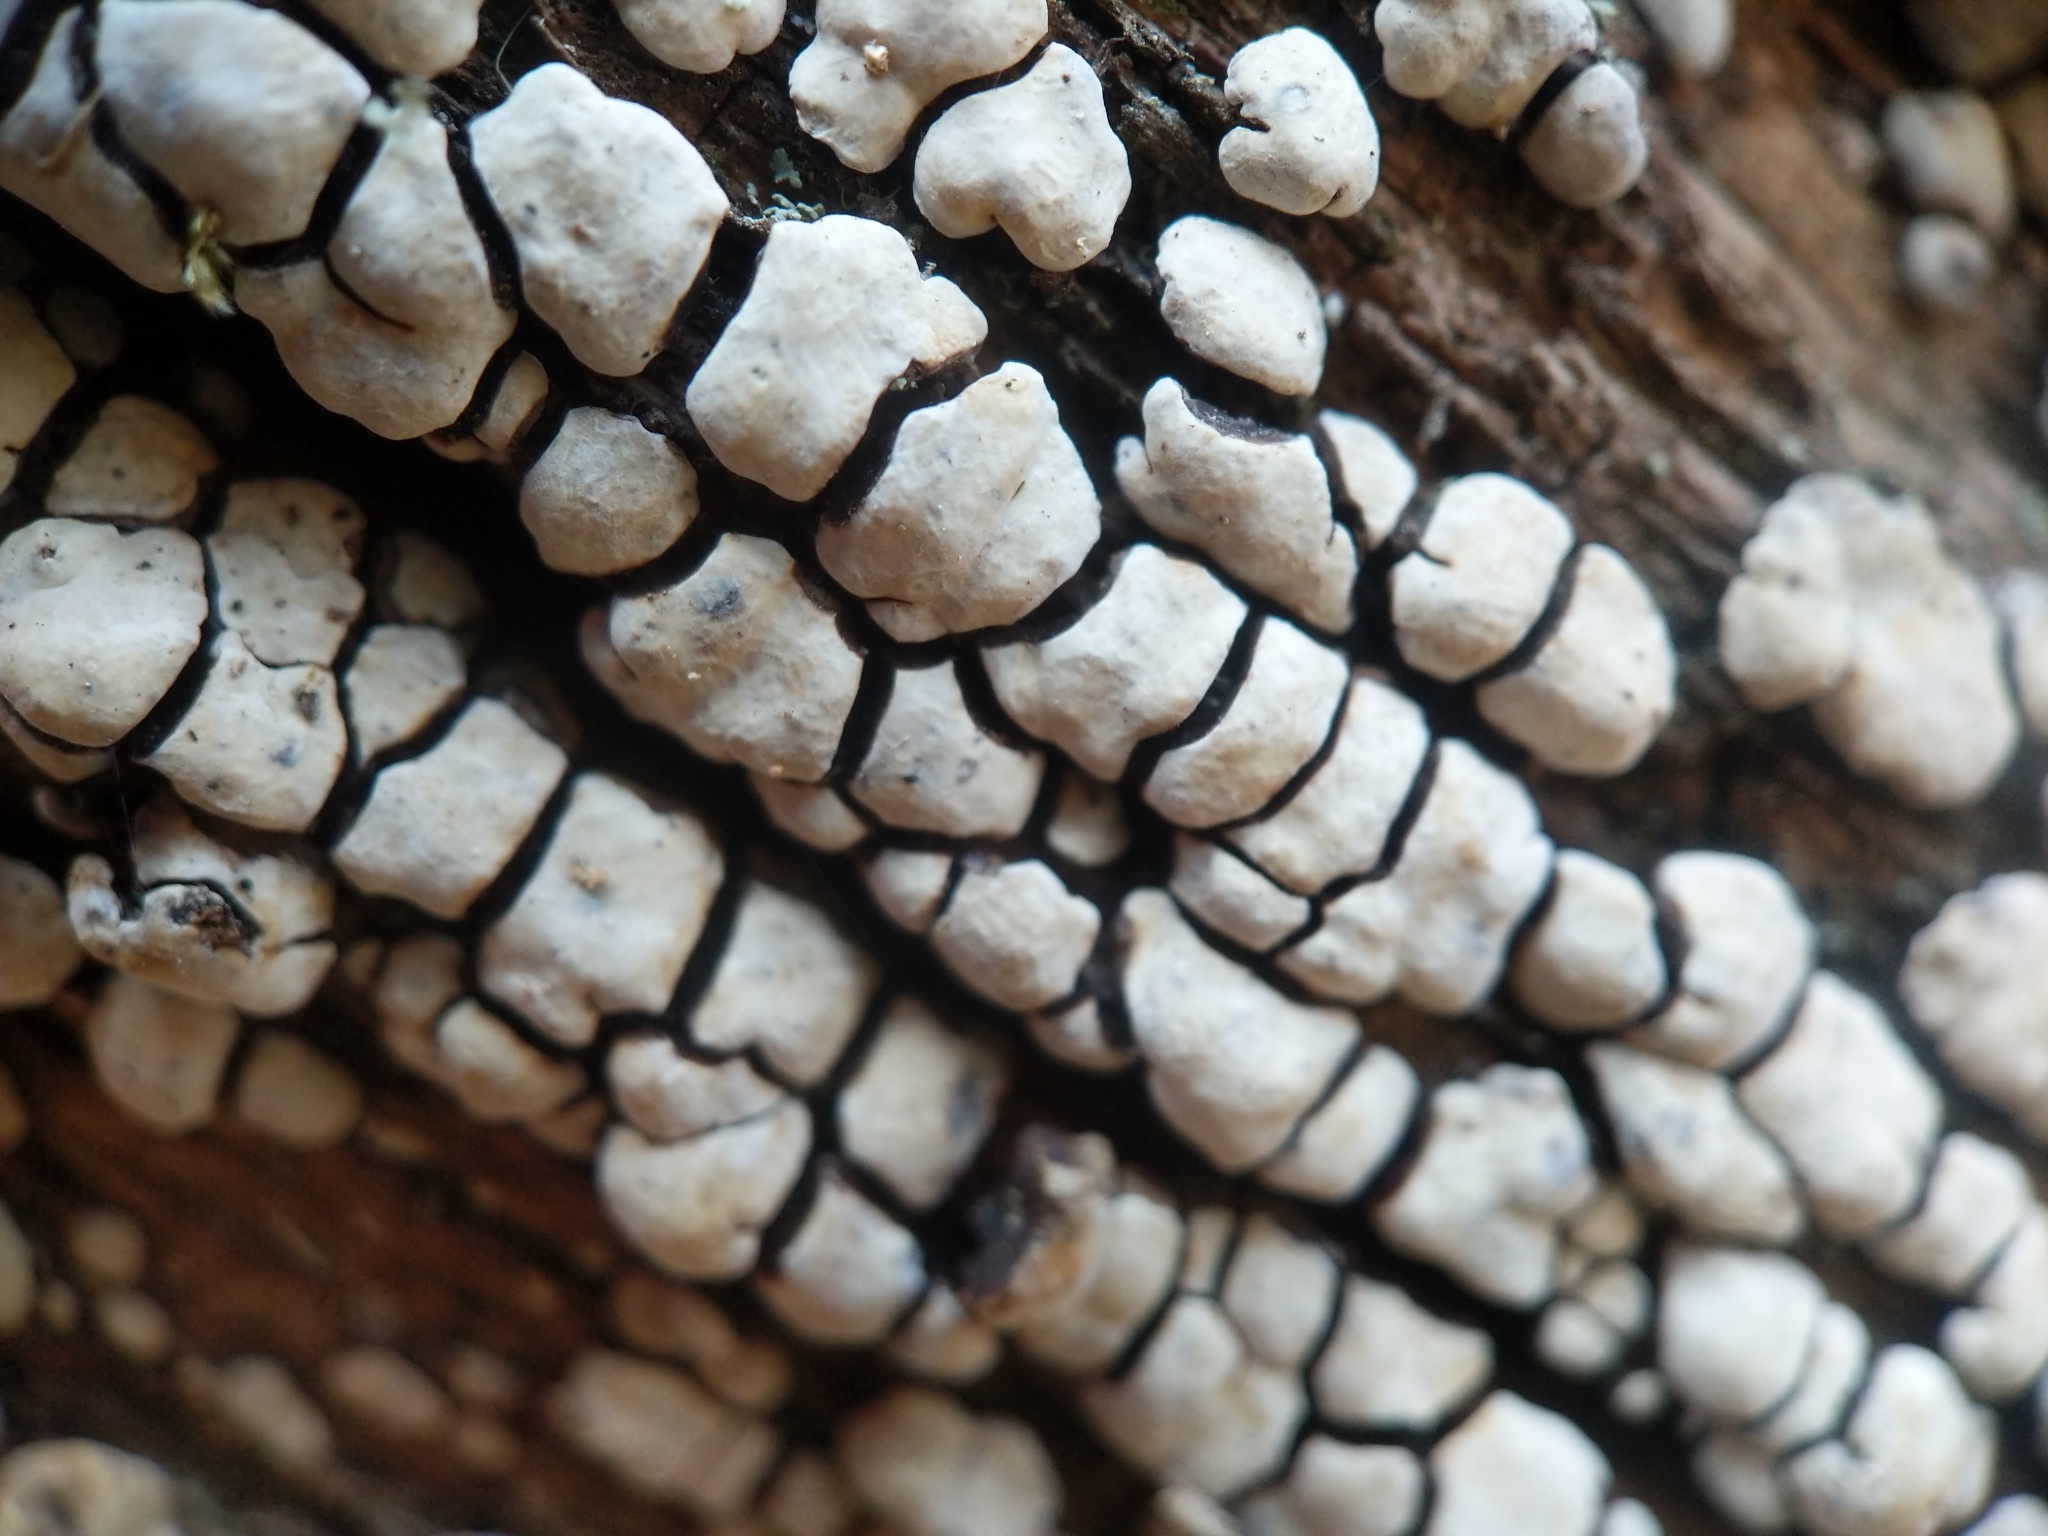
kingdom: Fungi
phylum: Basidiomycota
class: Agaricomycetes
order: Russulales
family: Stereaceae
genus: Xylobolus
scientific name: Xylobolus frustulatus
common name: Ceramic parchment
